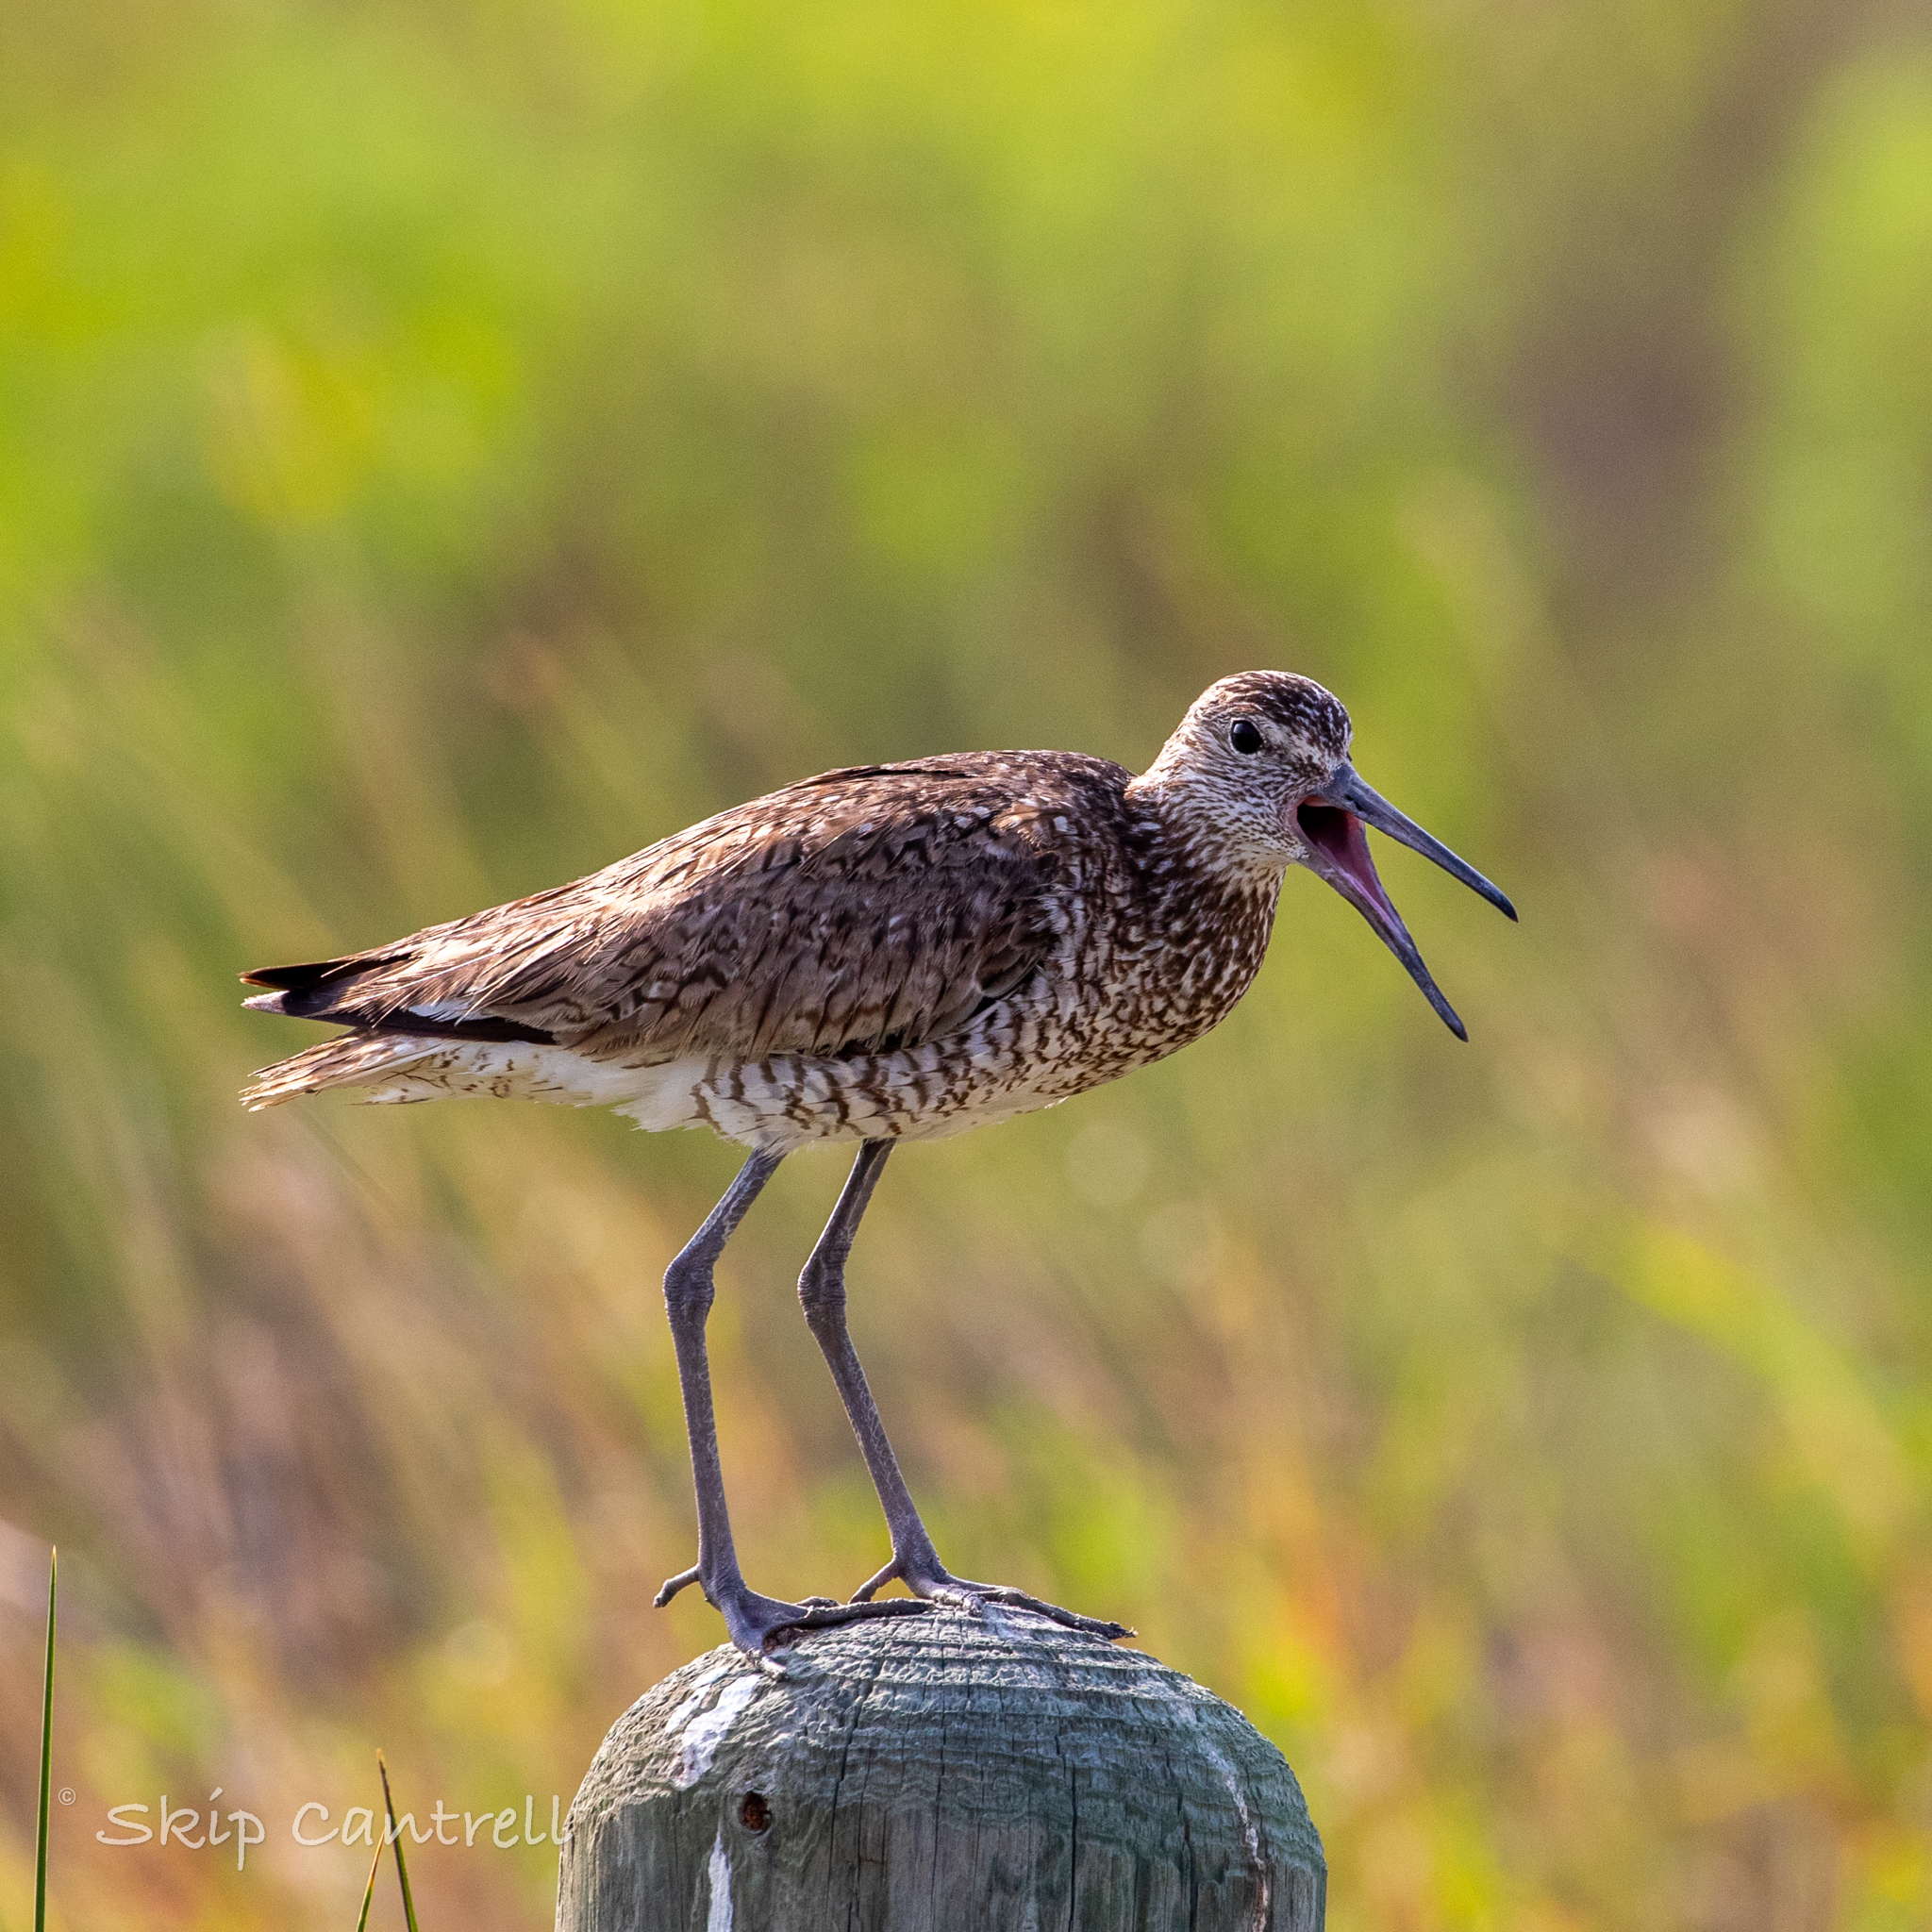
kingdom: Animalia
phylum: Chordata
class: Aves
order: Charadriiformes
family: Scolopacidae
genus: Tringa
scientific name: Tringa semipalmata
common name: Willet
